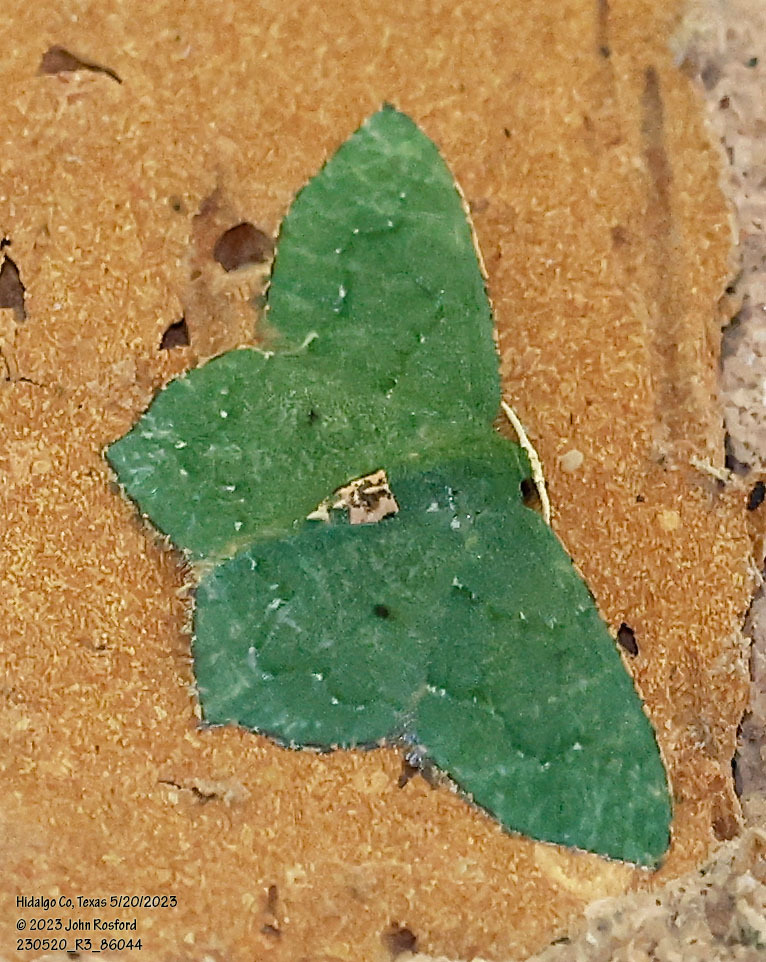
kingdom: Animalia
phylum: Arthropoda
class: Insecta
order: Lepidoptera
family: Geometridae
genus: Chloropteryx
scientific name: Chloropteryx nordicaria
